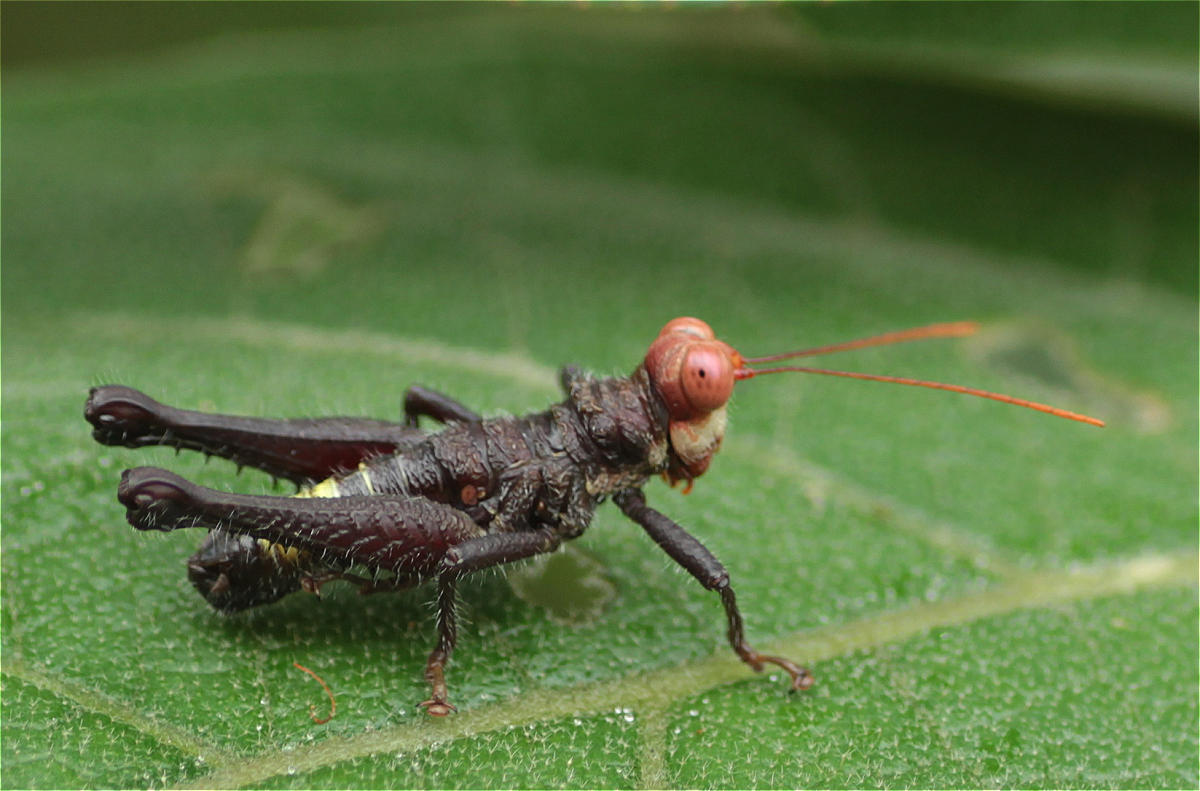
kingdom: Animalia
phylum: Arthropoda
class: Insecta
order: Orthoptera
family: Acrididae
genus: Kyphiacris
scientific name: Kyphiacris torquata
